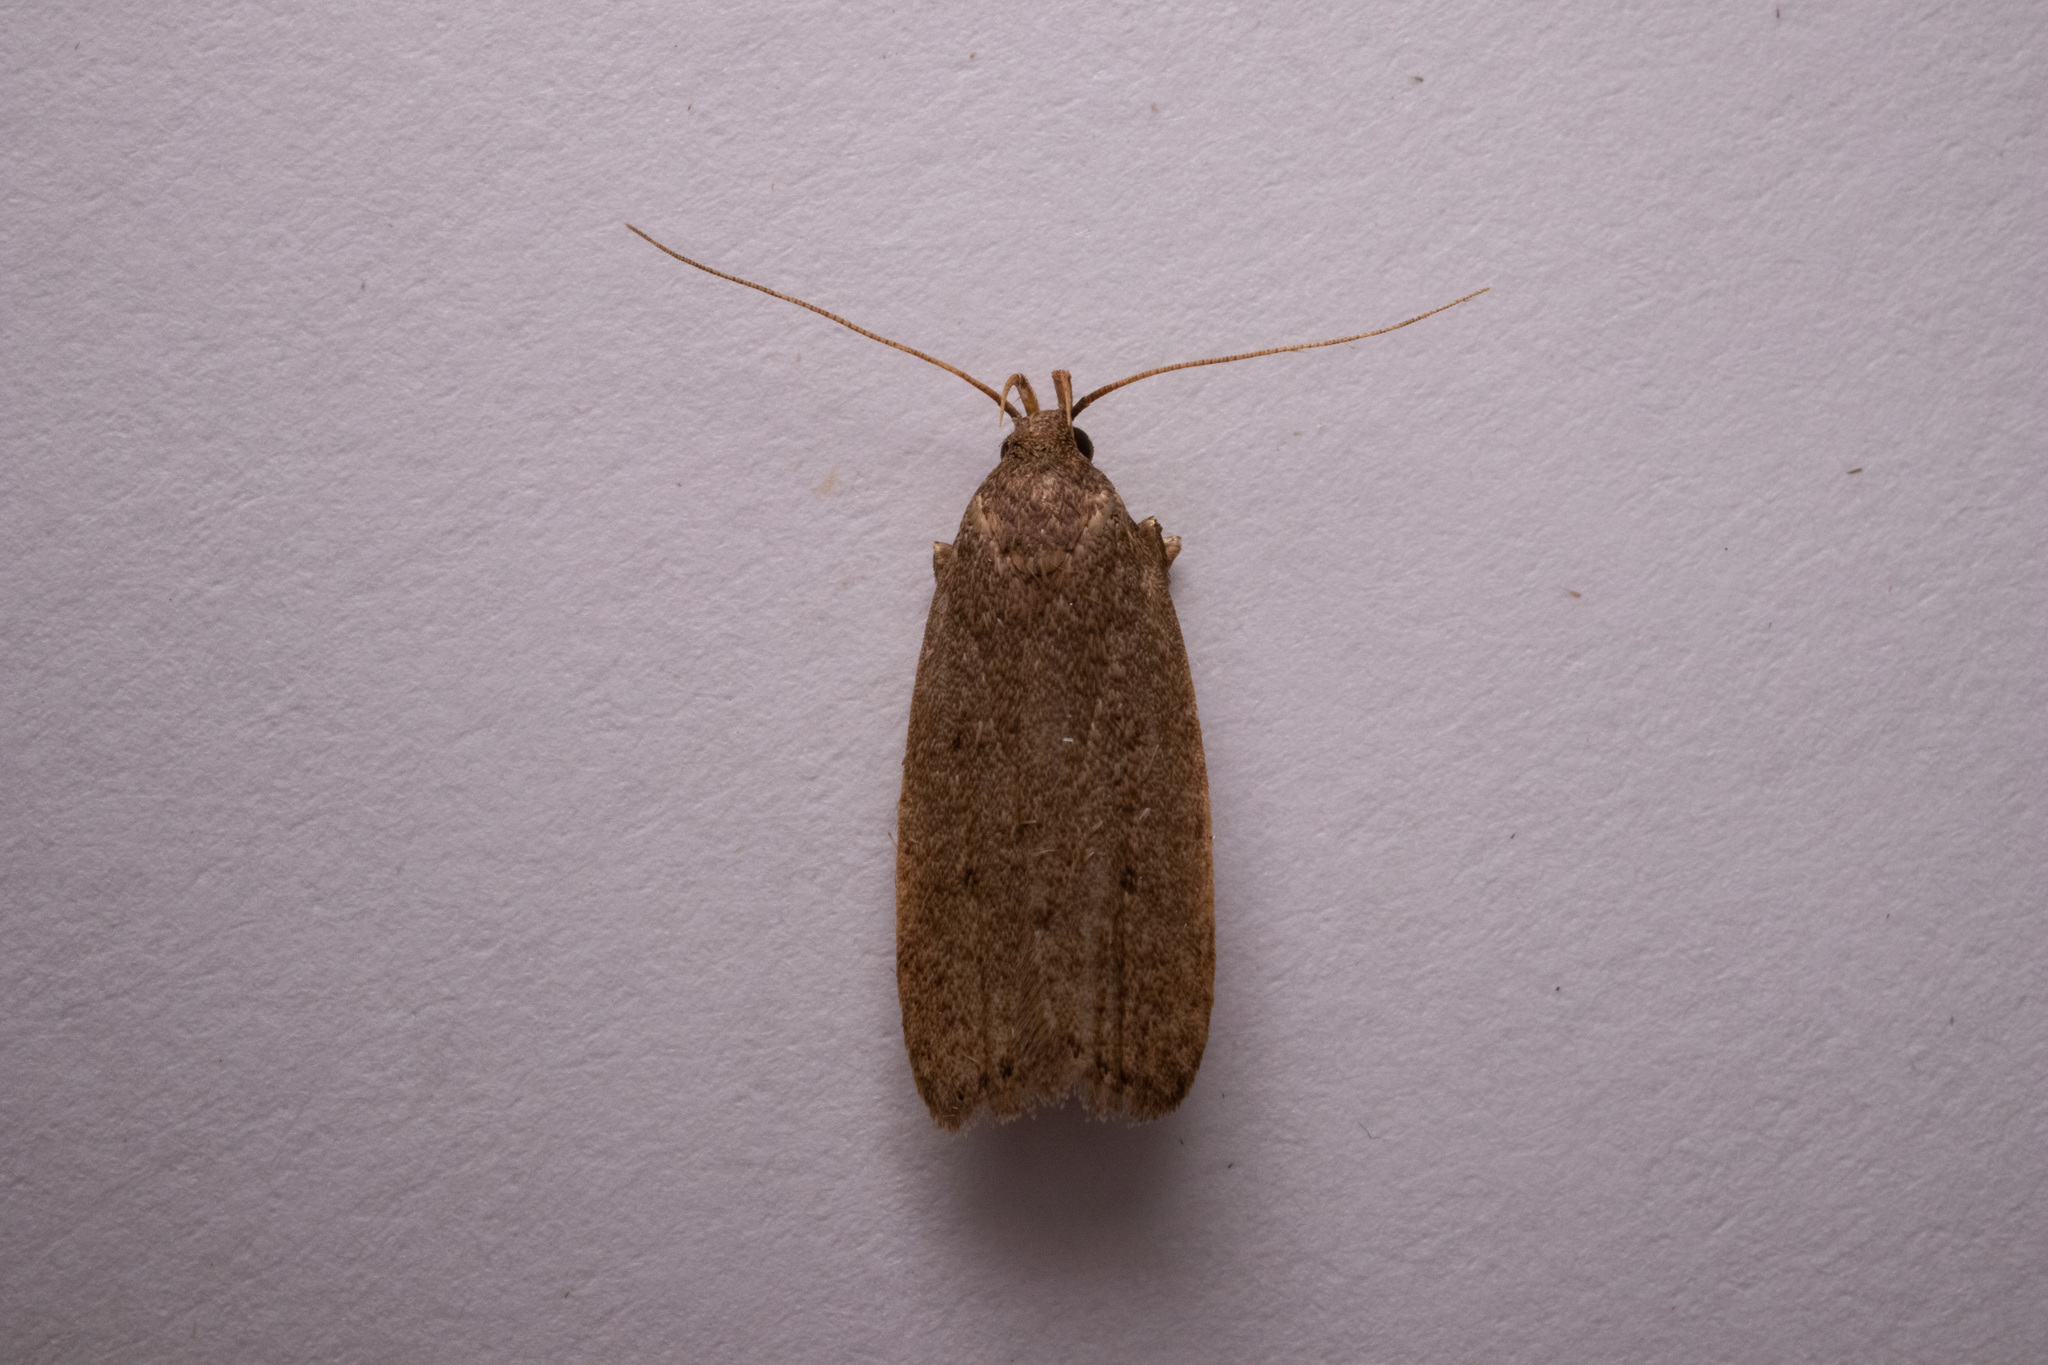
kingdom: Animalia
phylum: Arthropoda
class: Insecta
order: Lepidoptera
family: Autostichidae
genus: Autosticha
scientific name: Autosticha kyotensis
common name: Kyoto moth
